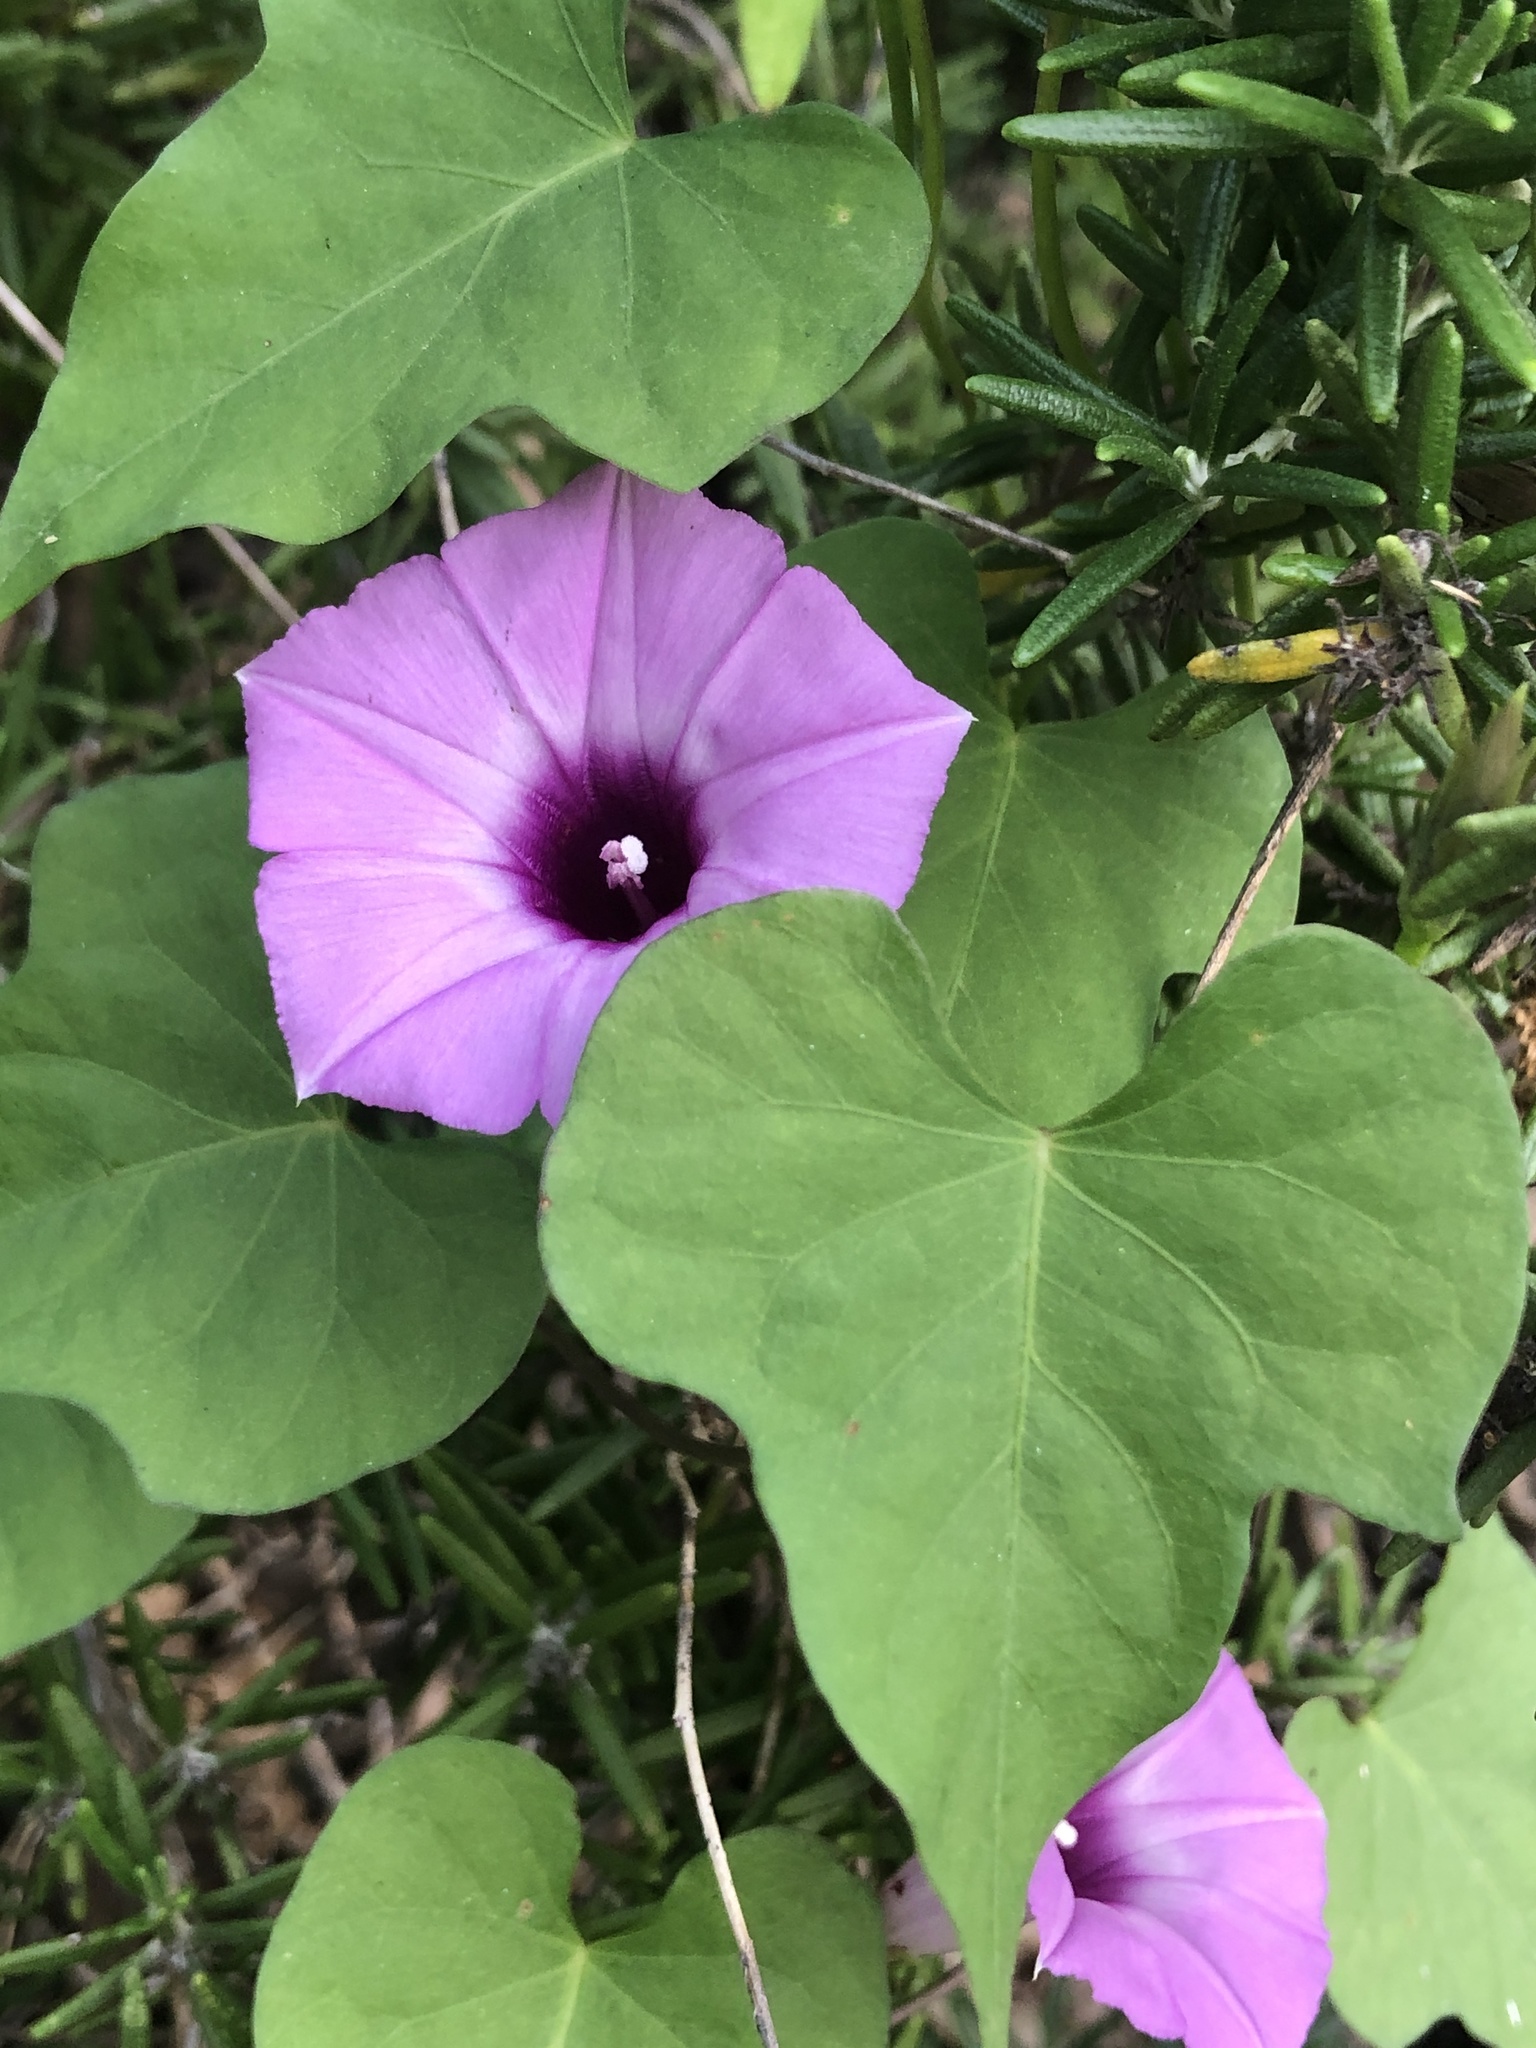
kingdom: Plantae
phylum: Tracheophyta
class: Magnoliopsida
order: Solanales
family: Convolvulaceae
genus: Ipomoea
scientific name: Ipomoea cordatotriloba
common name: Cotton morning glory
